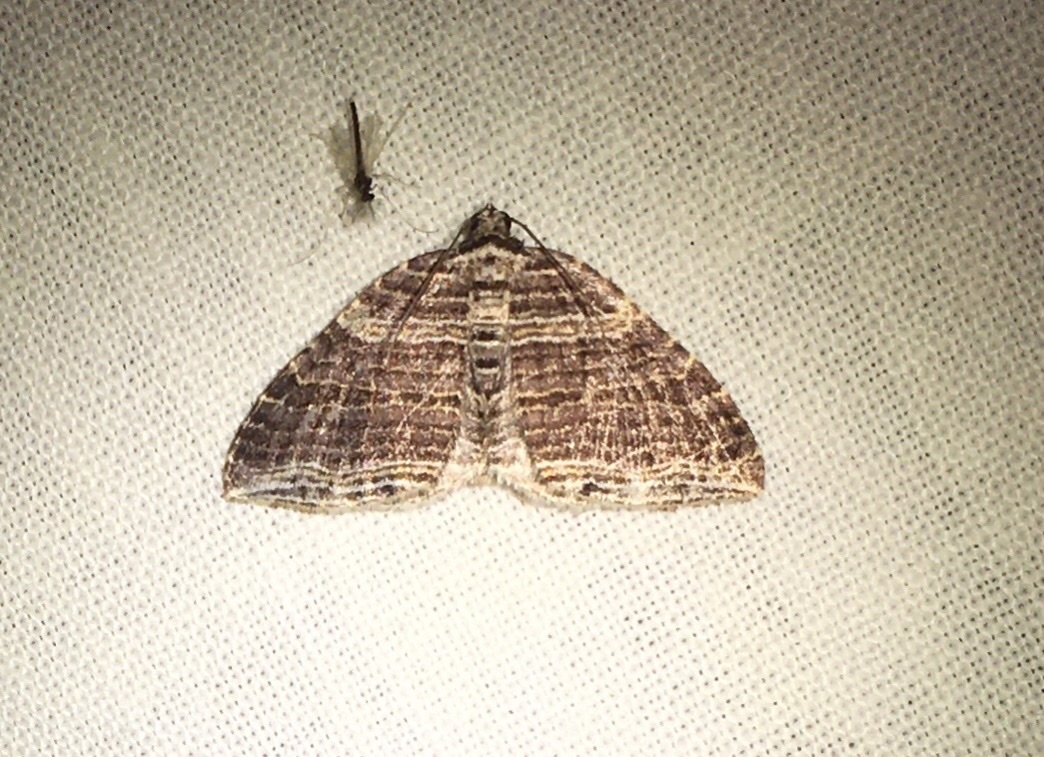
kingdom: Animalia
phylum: Arthropoda
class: Insecta
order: Lepidoptera
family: Geometridae
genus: Anticlea
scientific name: Anticlea multiferata
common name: Many-lined carpet
